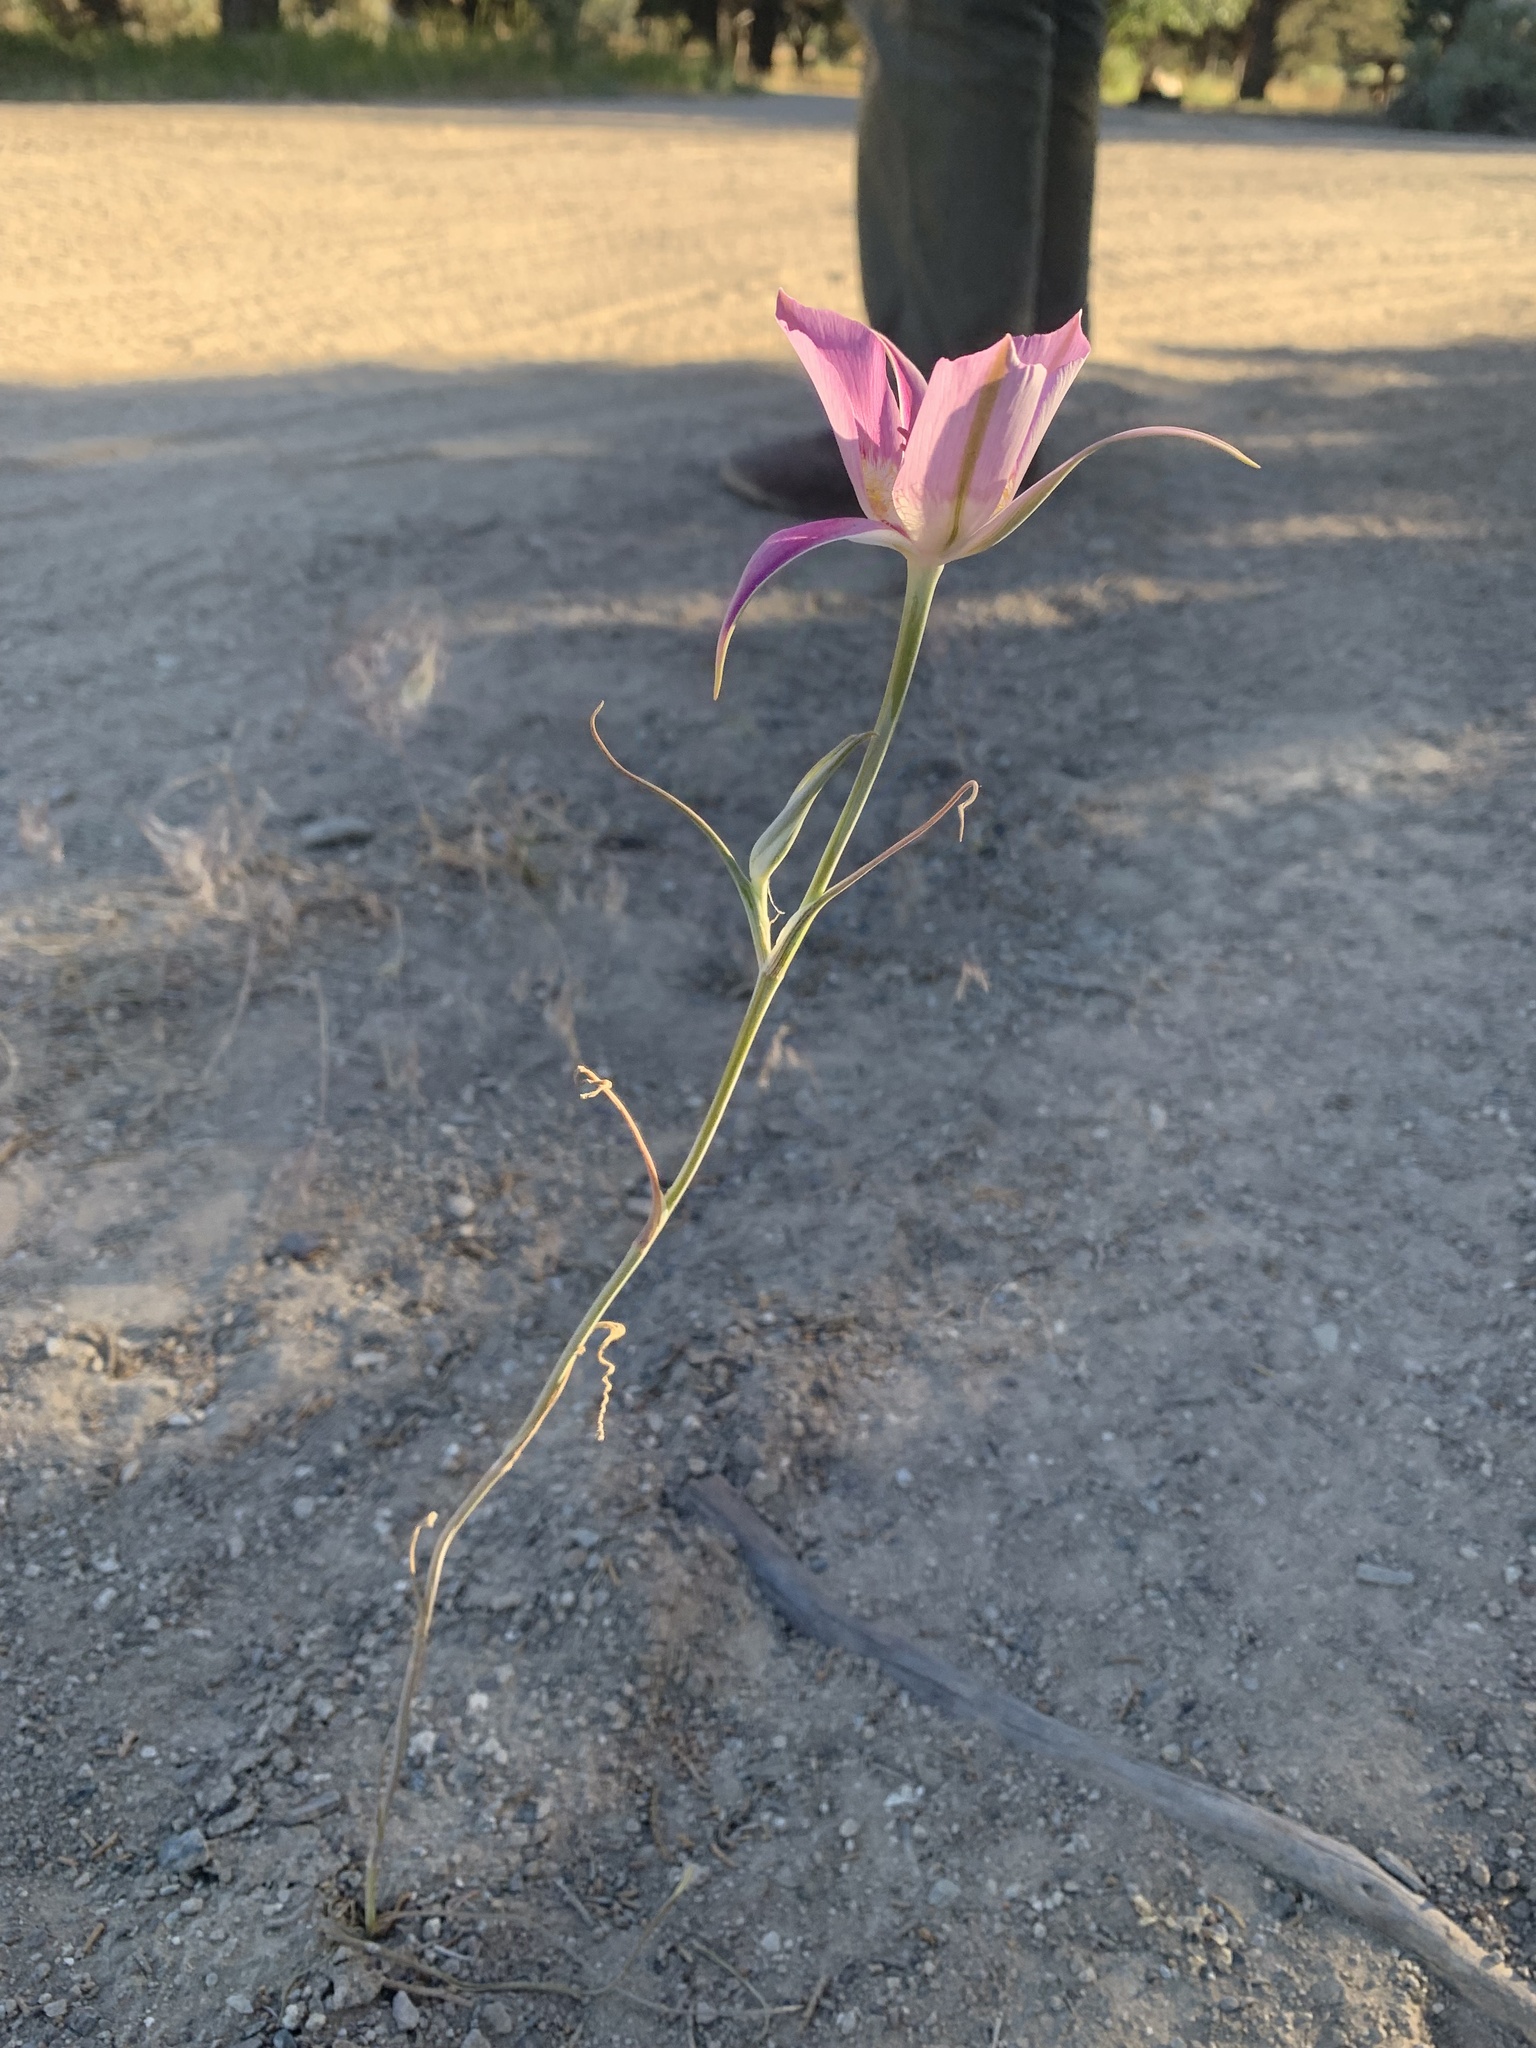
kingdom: Plantae
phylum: Tracheophyta
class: Liliopsida
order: Liliales
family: Liliaceae
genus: Calochortus
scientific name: Calochortus macrocarpus
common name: Green-band mariposa lily
